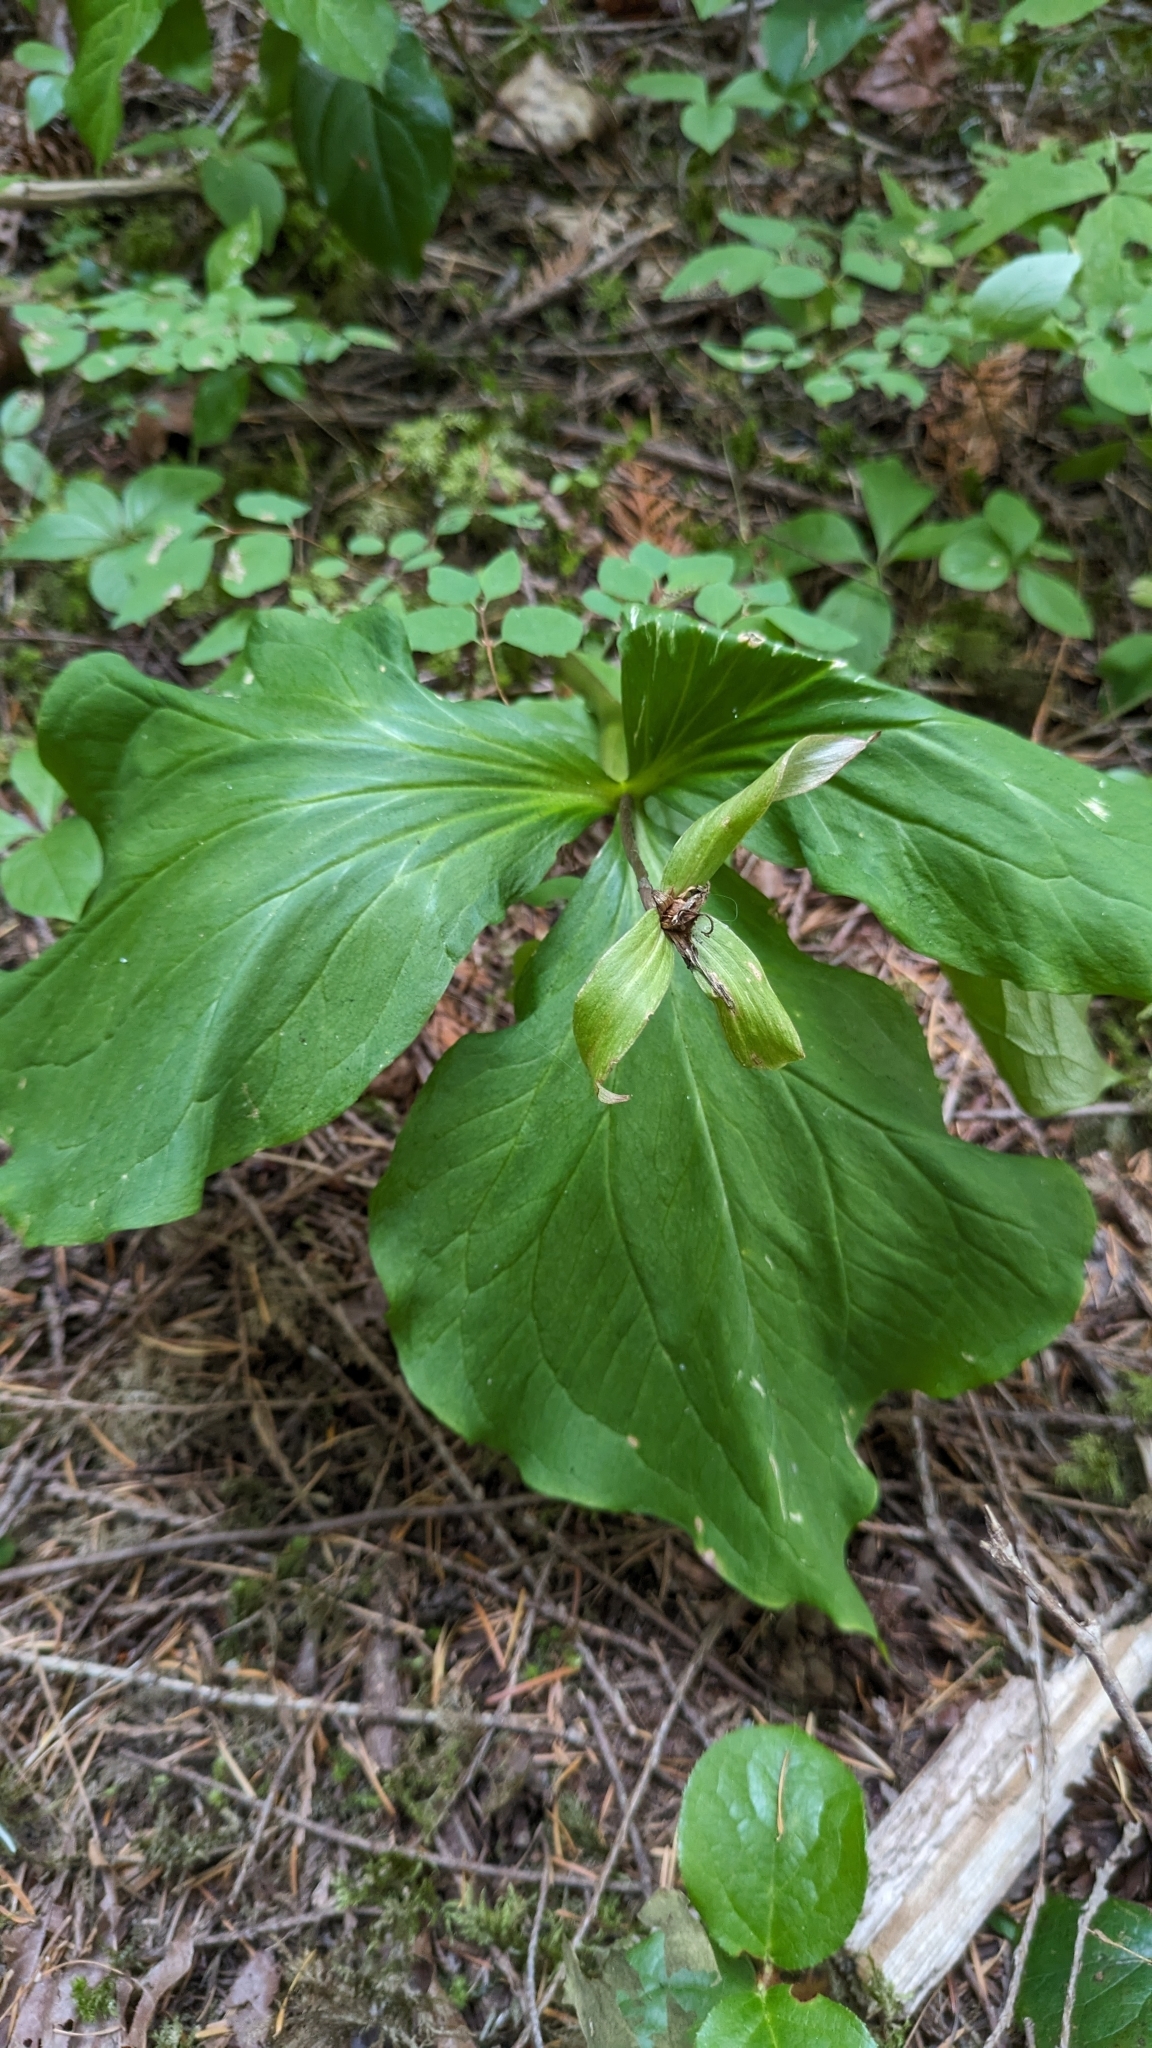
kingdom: Plantae
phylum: Tracheophyta
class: Liliopsida
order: Liliales
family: Melanthiaceae
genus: Trillium
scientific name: Trillium ovatum
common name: Pacific trillium
